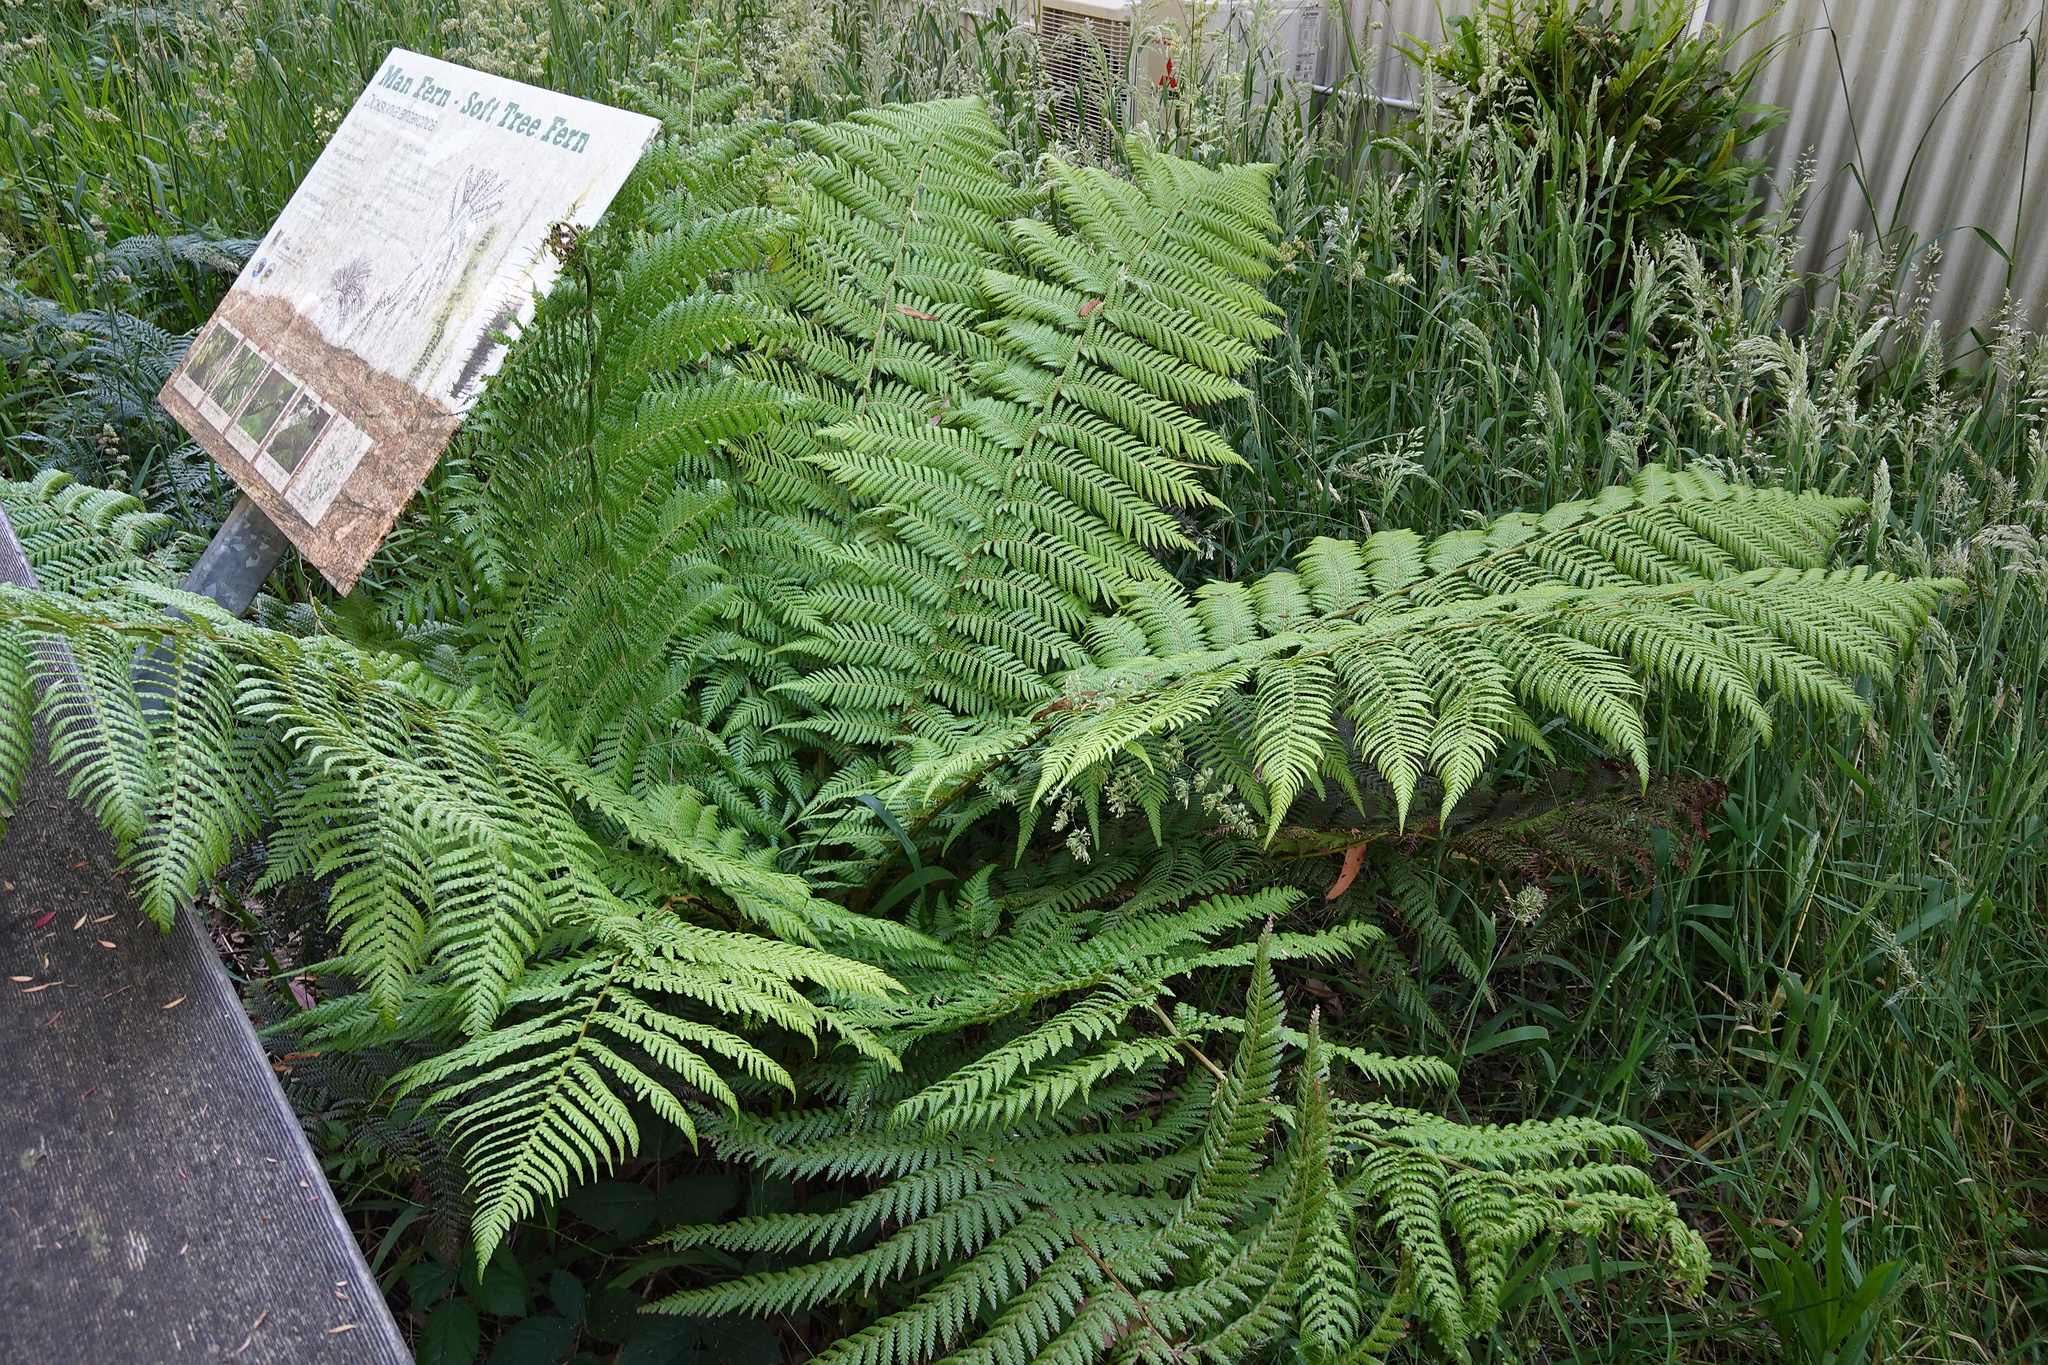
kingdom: Plantae
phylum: Tracheophyta
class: Polypodiopsida
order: Cyatheales
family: Dicksoniaceae
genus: Dicksonia
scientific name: Dicksonia antarctica
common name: Australian treefern
